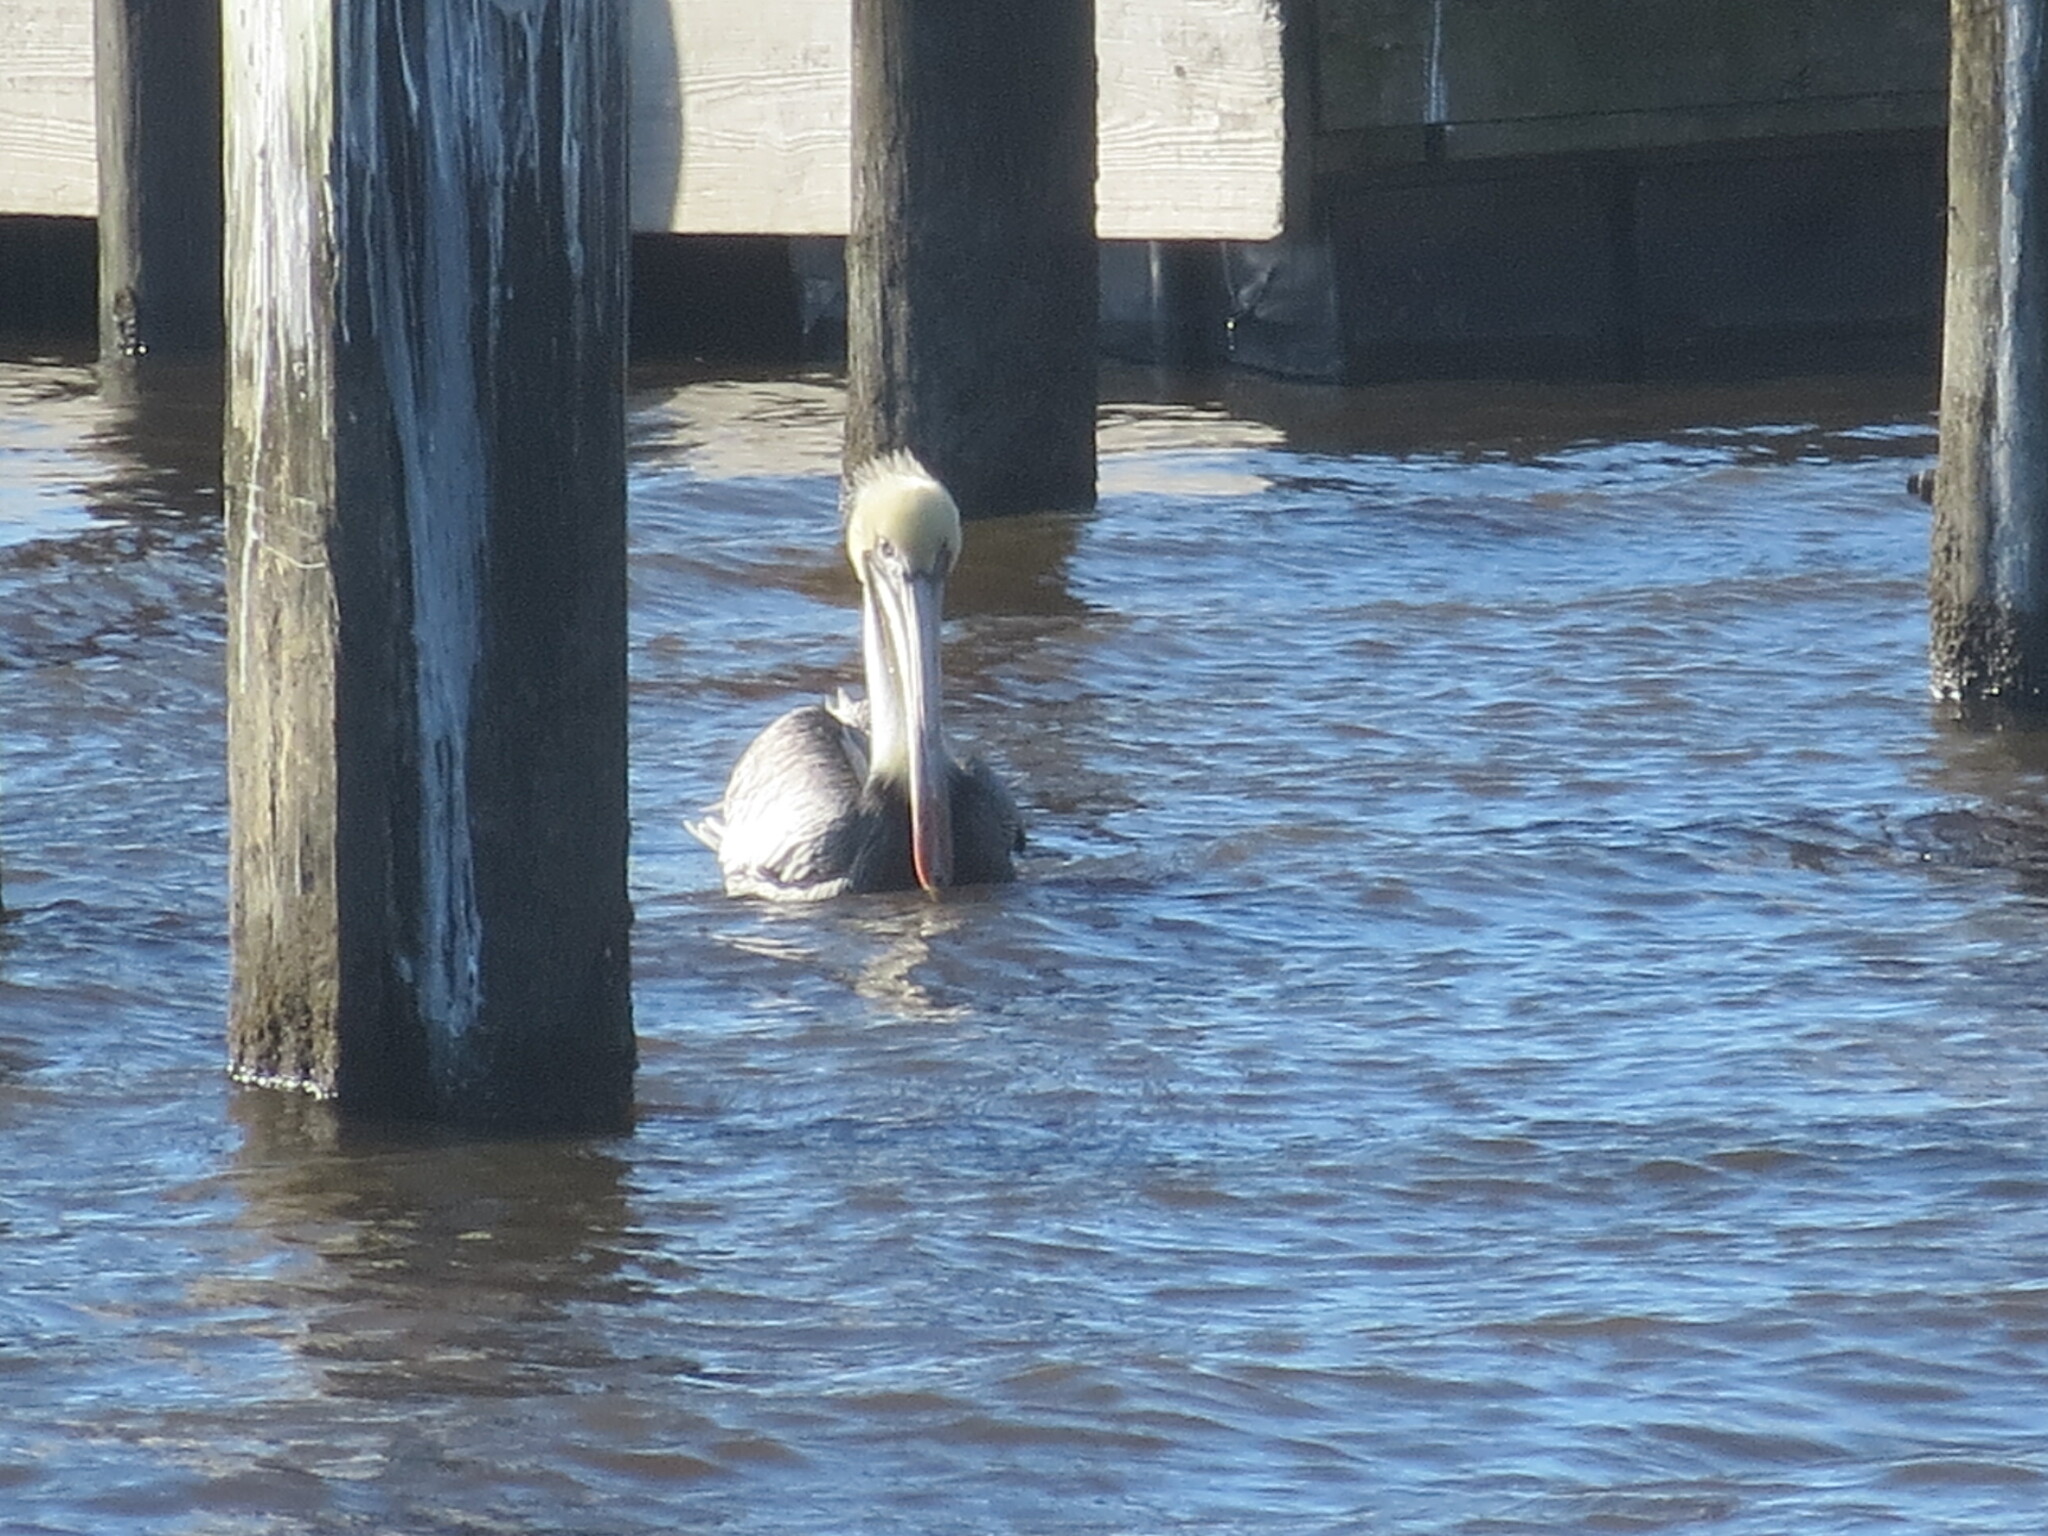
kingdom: Animalia
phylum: Chordata
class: Aves
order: Pelecaniformes
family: Pelecanidae
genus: Pelecanus
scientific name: Pelecanus occidentalis
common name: Brown pelican
